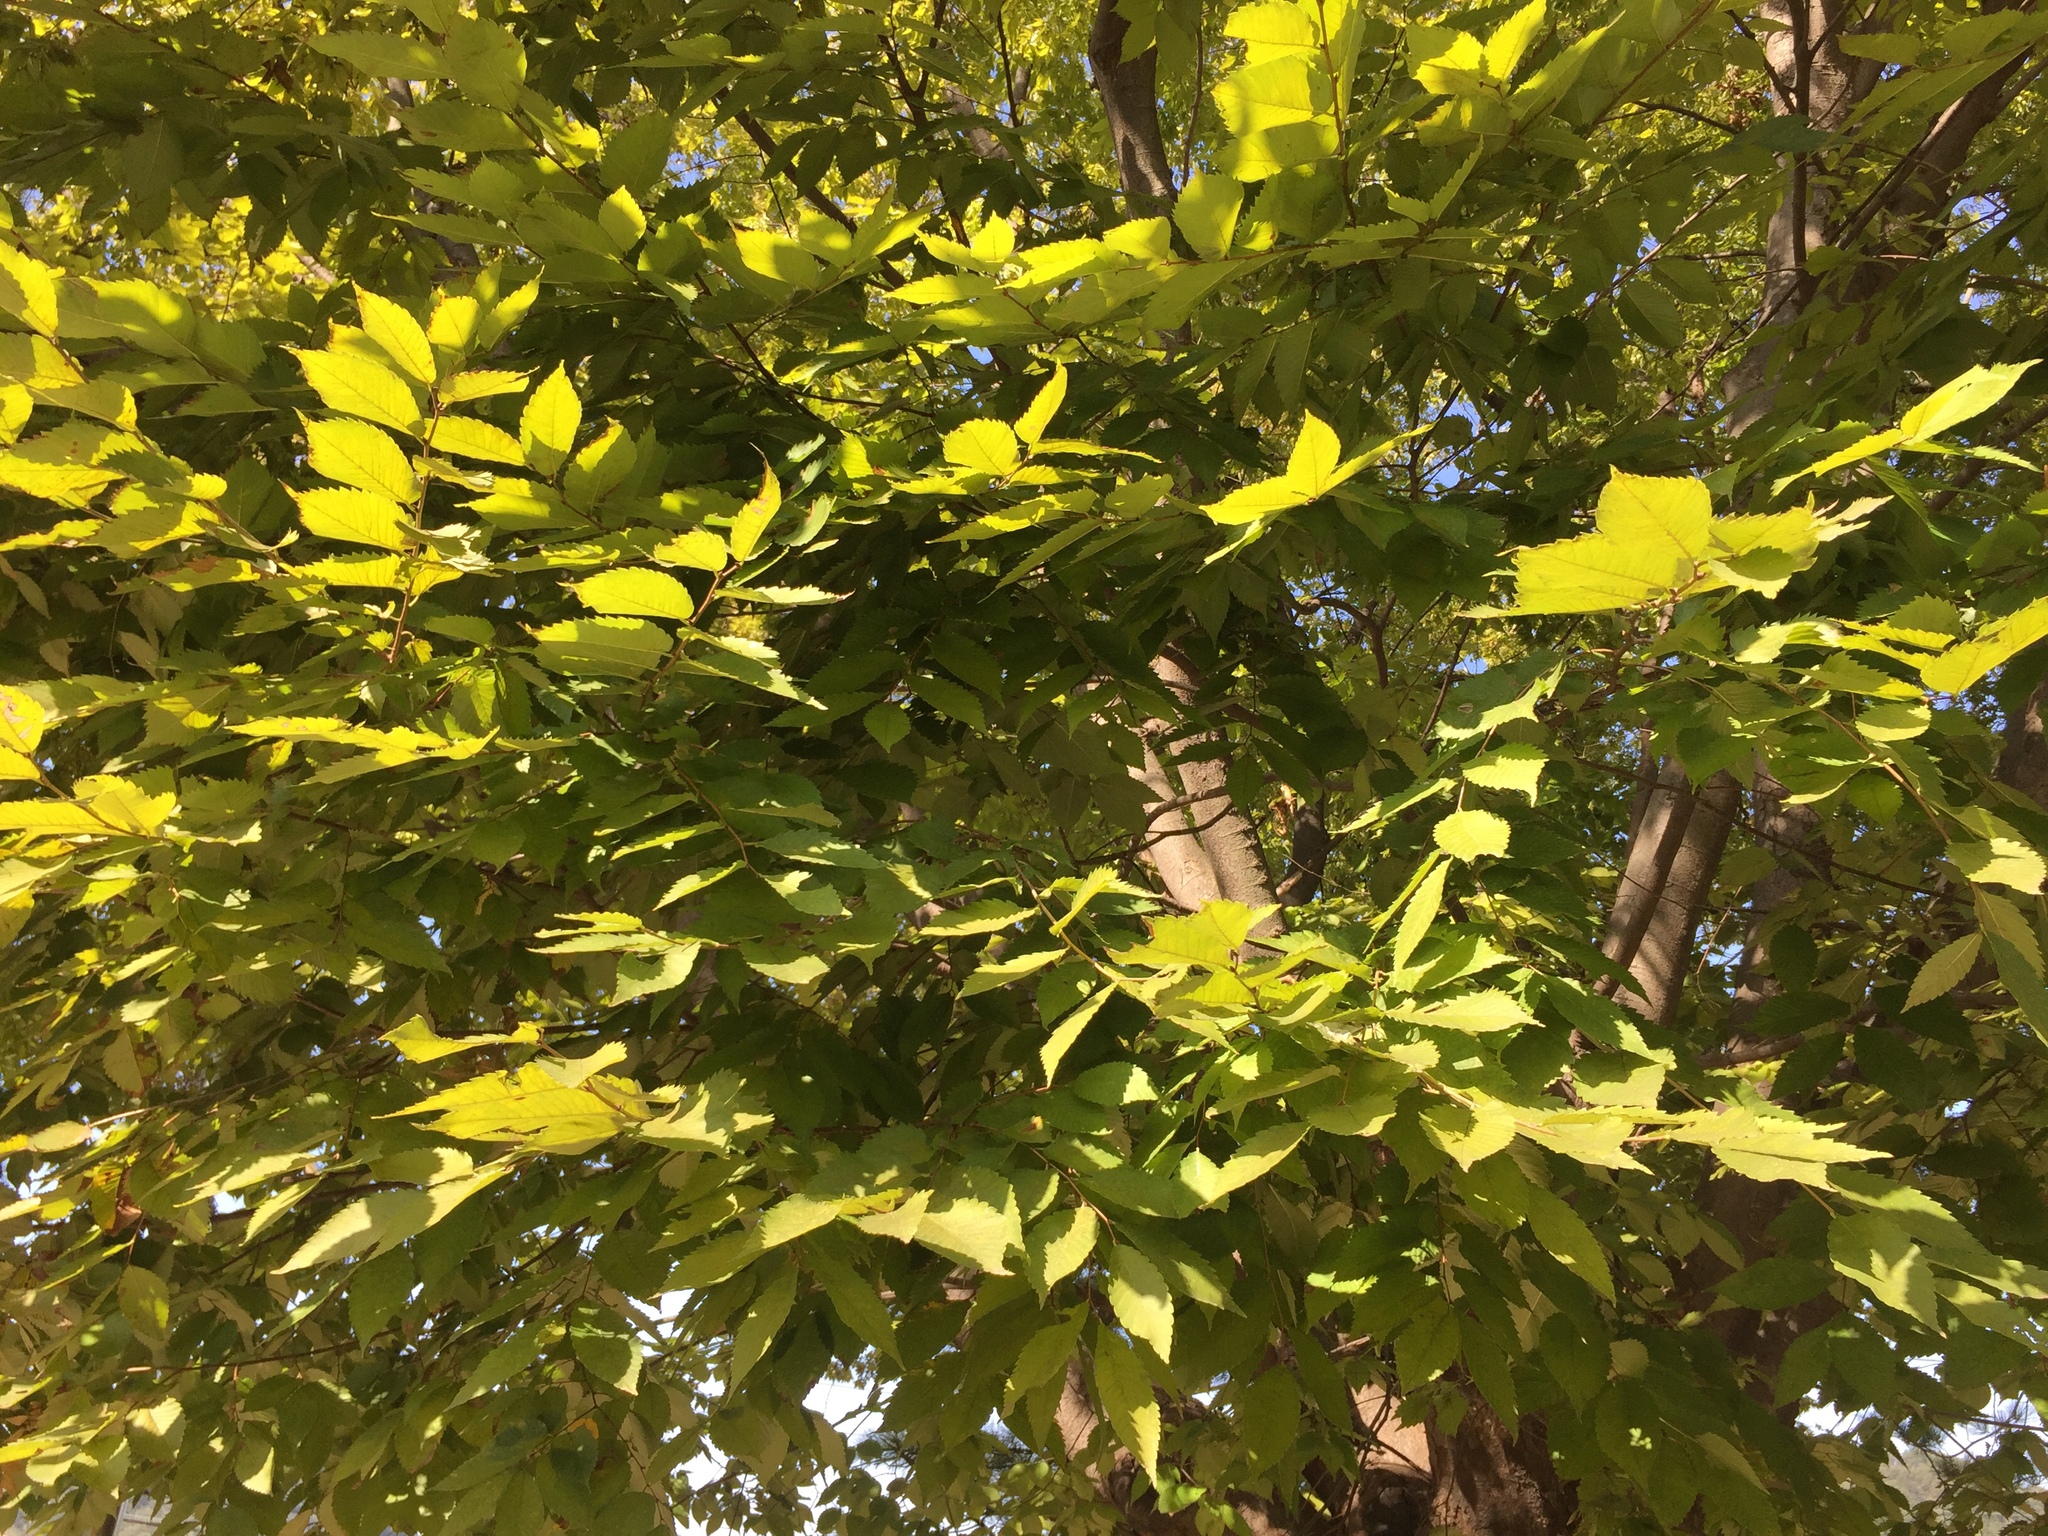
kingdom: Plantae
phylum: Tracheophyta
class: Magnoliopsida
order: Rosales
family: Ulmaceae
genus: Zelkova
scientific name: Zelkova serrata
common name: Japanese zelkova
